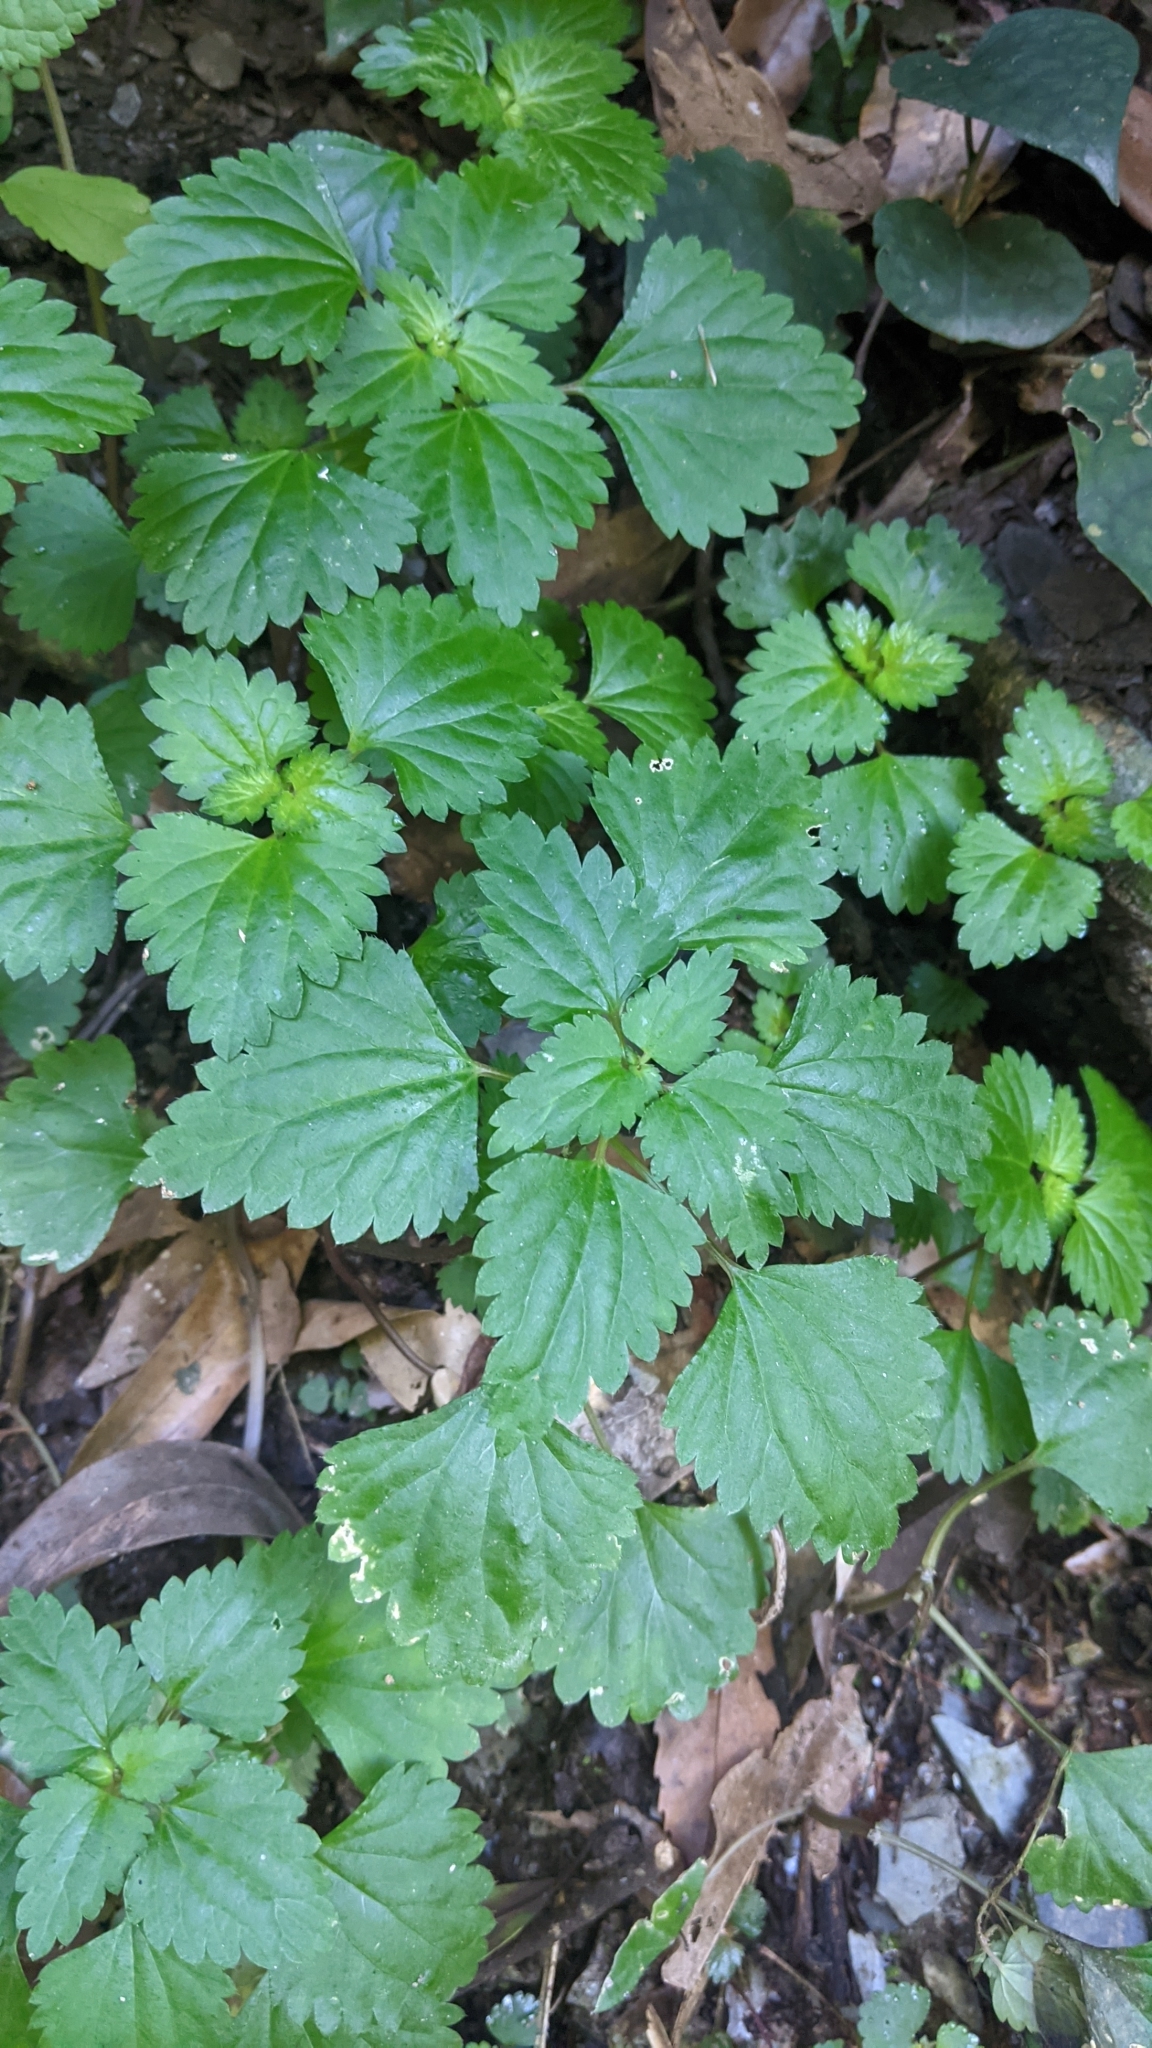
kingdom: Plantae
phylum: Tracheophyta
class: Magnoliopsida
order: Rosales
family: Urticaceae
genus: Nanocnide
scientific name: Nanocnide japonica
